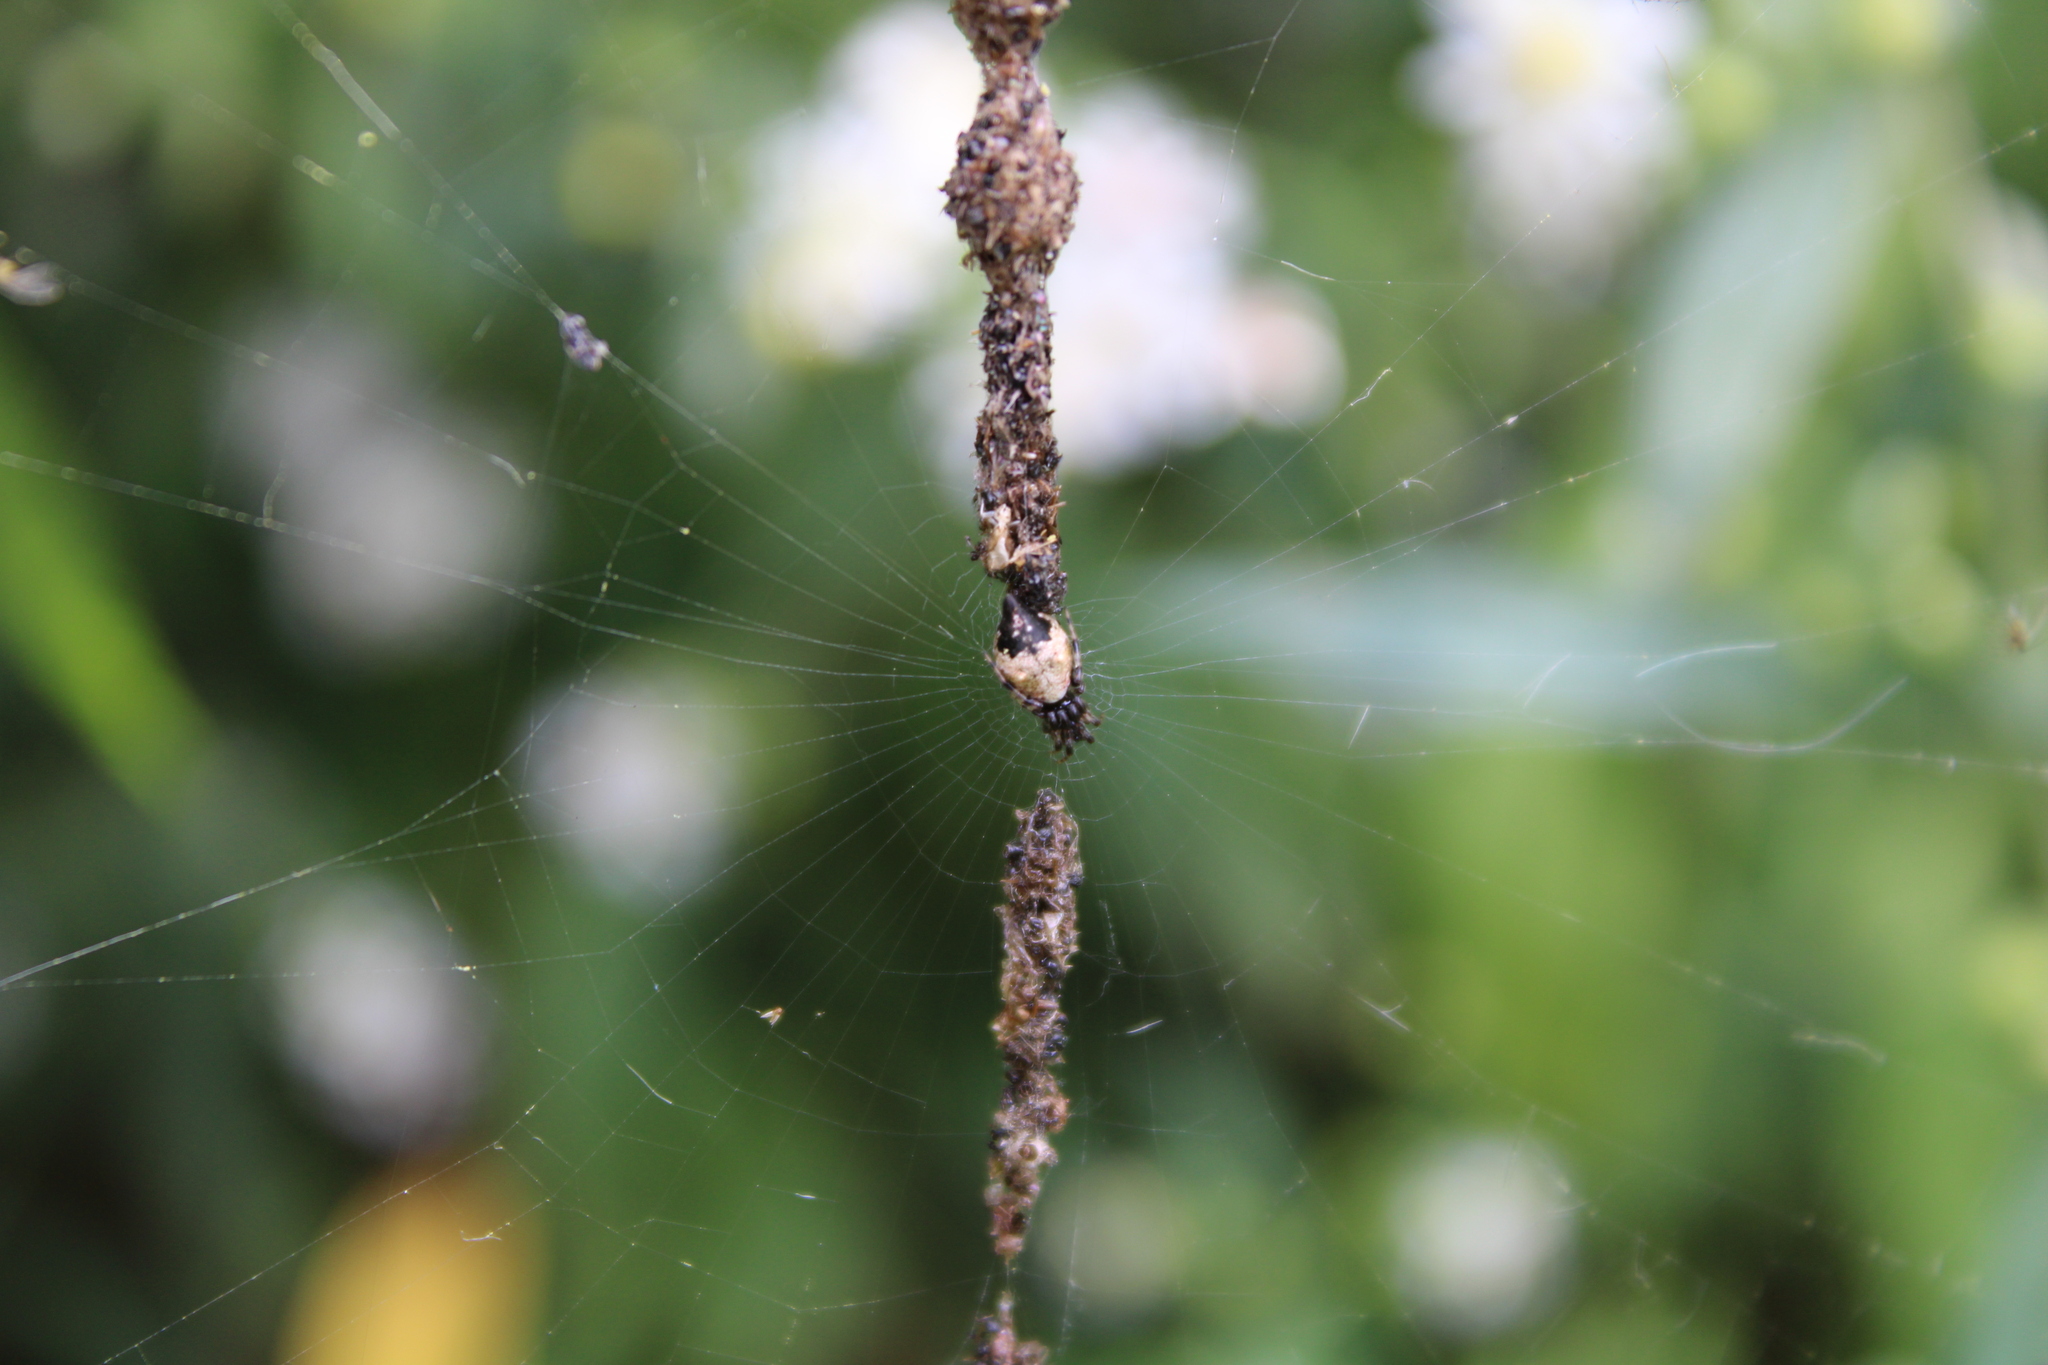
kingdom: Animalia
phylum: Arthropoda
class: Arachnida
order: Araneae
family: Araneidae
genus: Cyclosa
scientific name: Cyclosa turbinata
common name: Orb weavers
